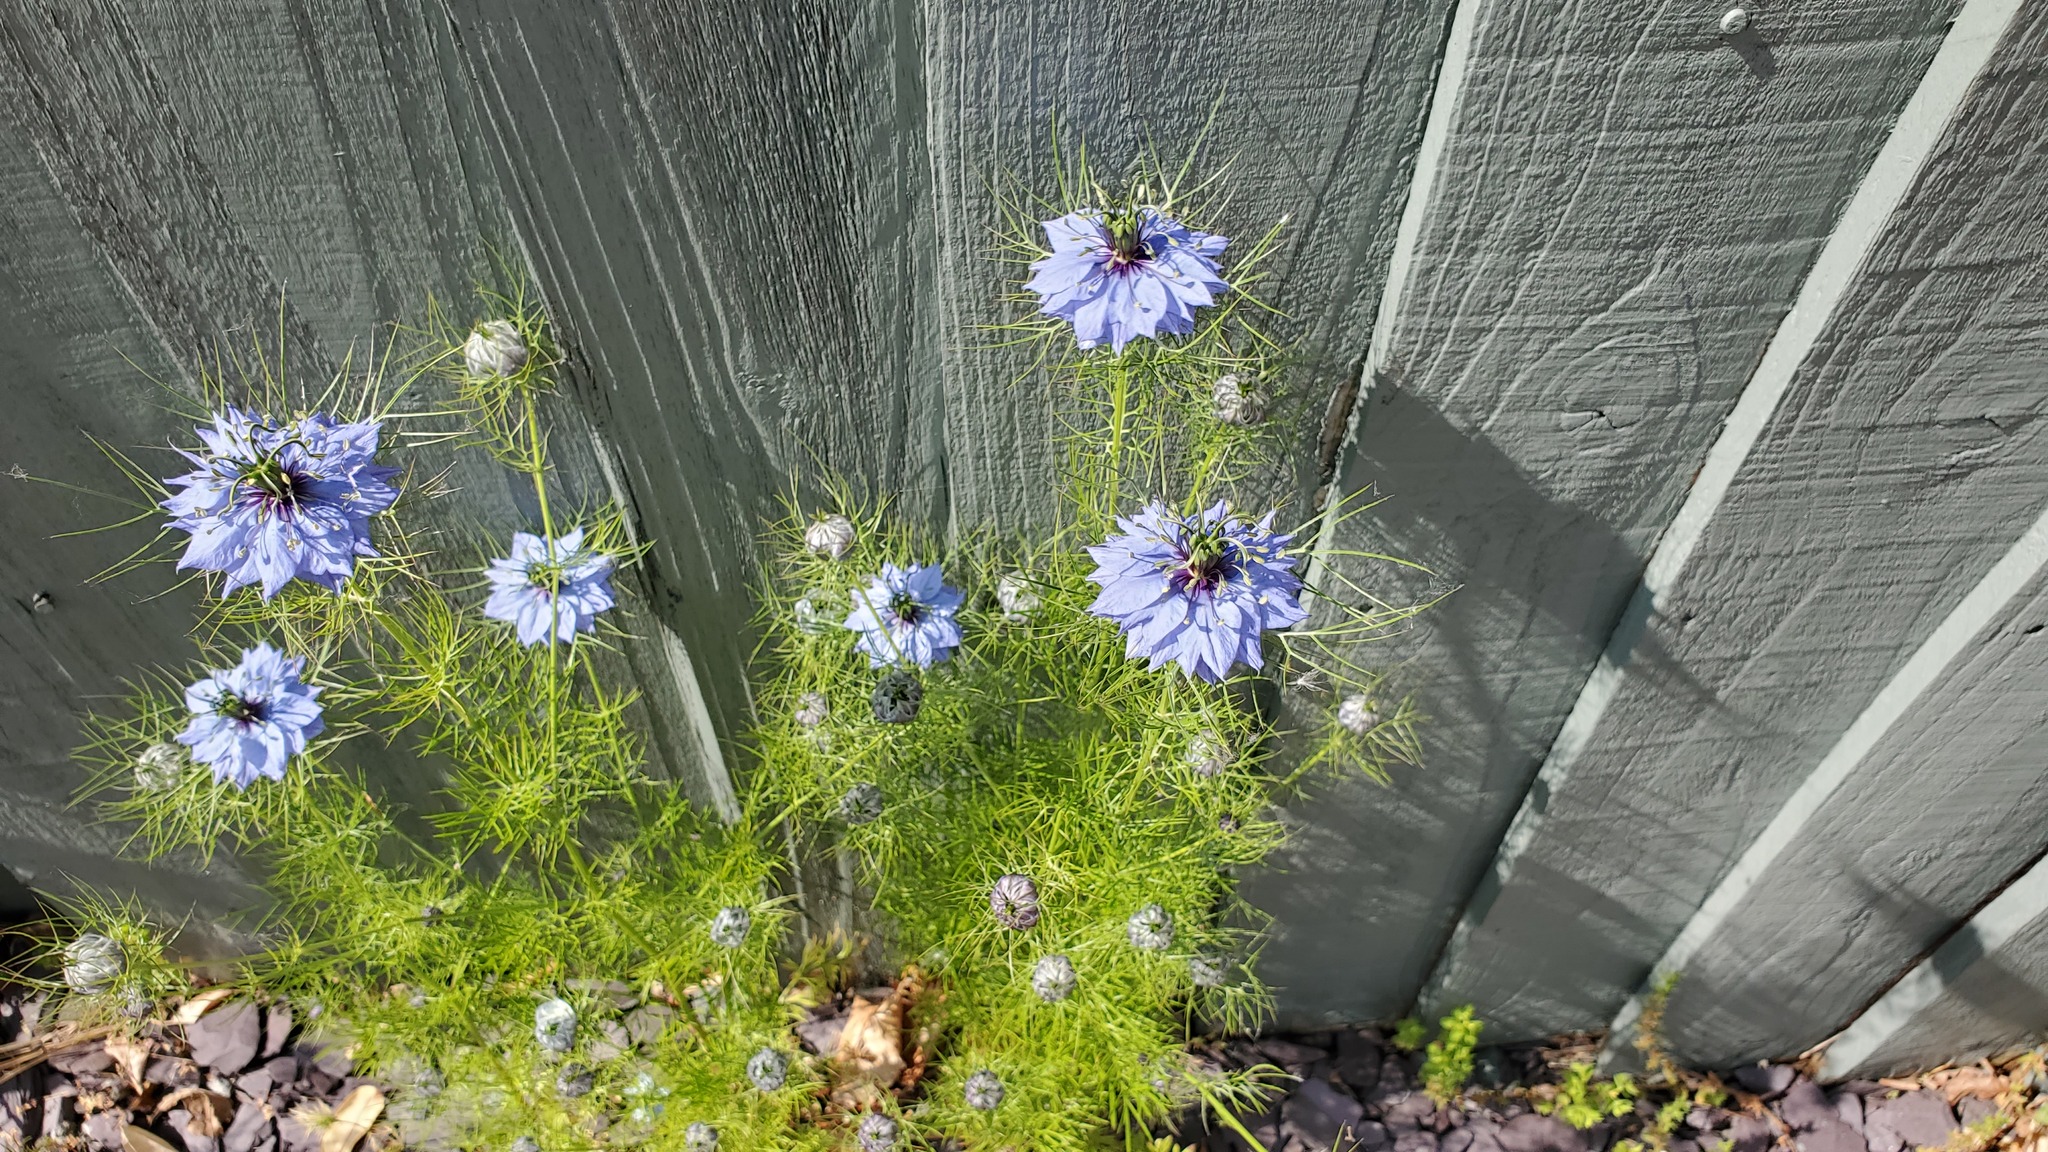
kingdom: Plantae
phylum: Tracheophyta
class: Magnoliopsida
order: Ranunculales
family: Ranunculaceae
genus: Nigella
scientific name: Nigella damascena
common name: Love-in-a-mist
